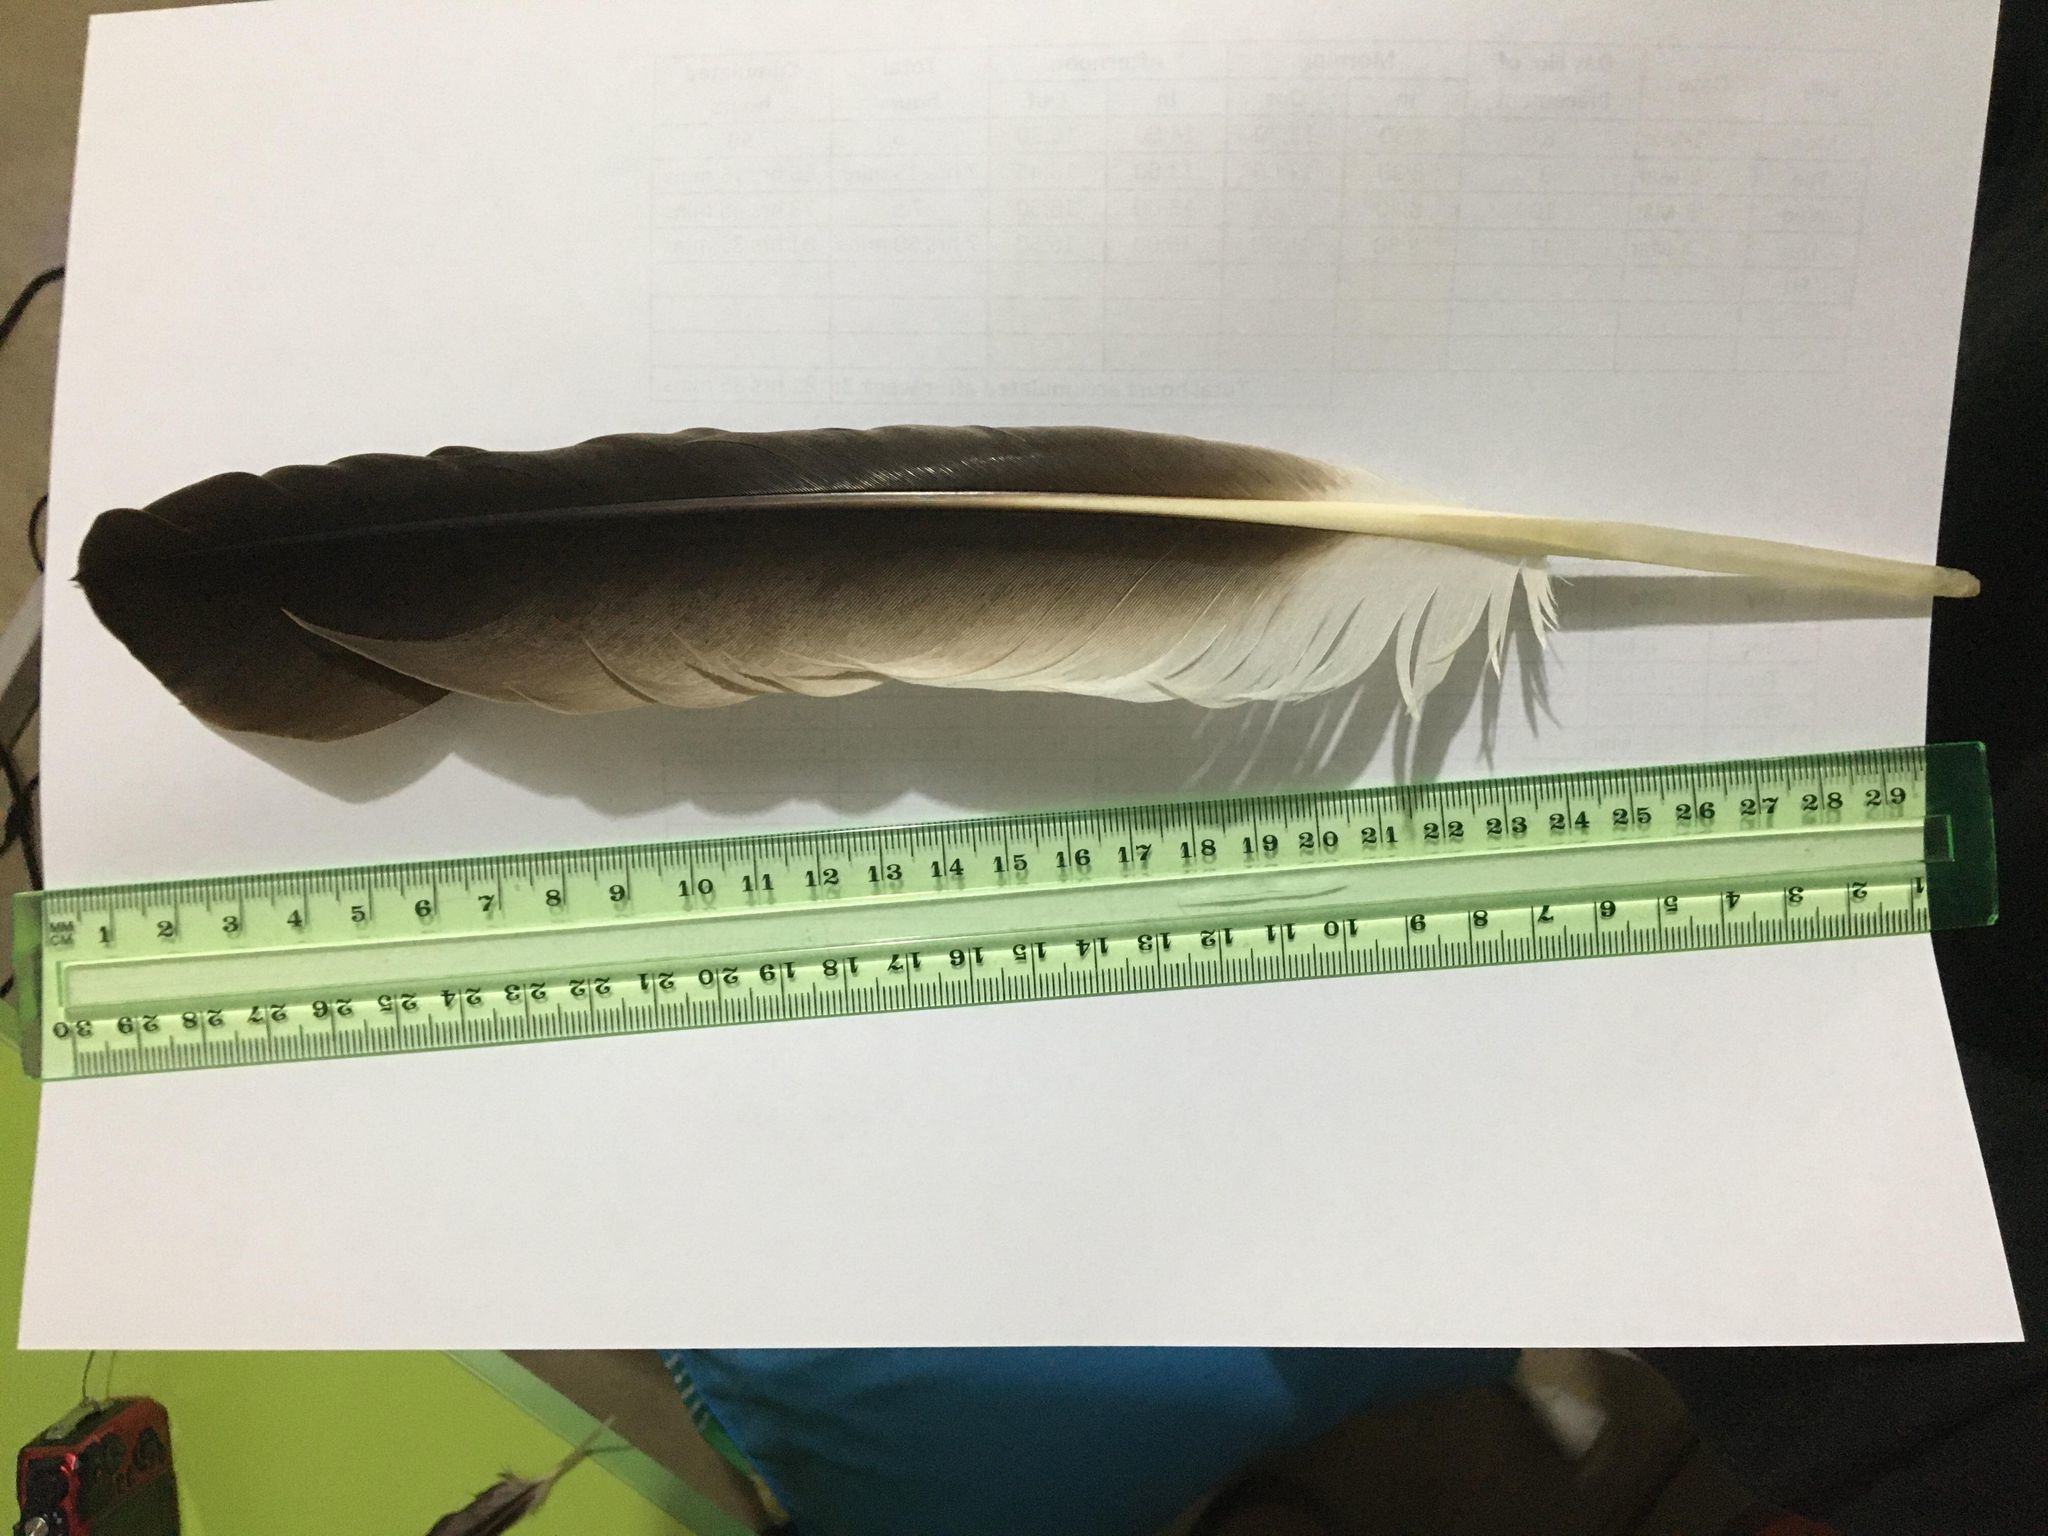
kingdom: Animalia
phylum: Chordata
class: Aves
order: Pelecaniformes
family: Pelecanidae
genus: Pelecanus
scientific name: Pelecanus conspicillatus
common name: Australian pelican
